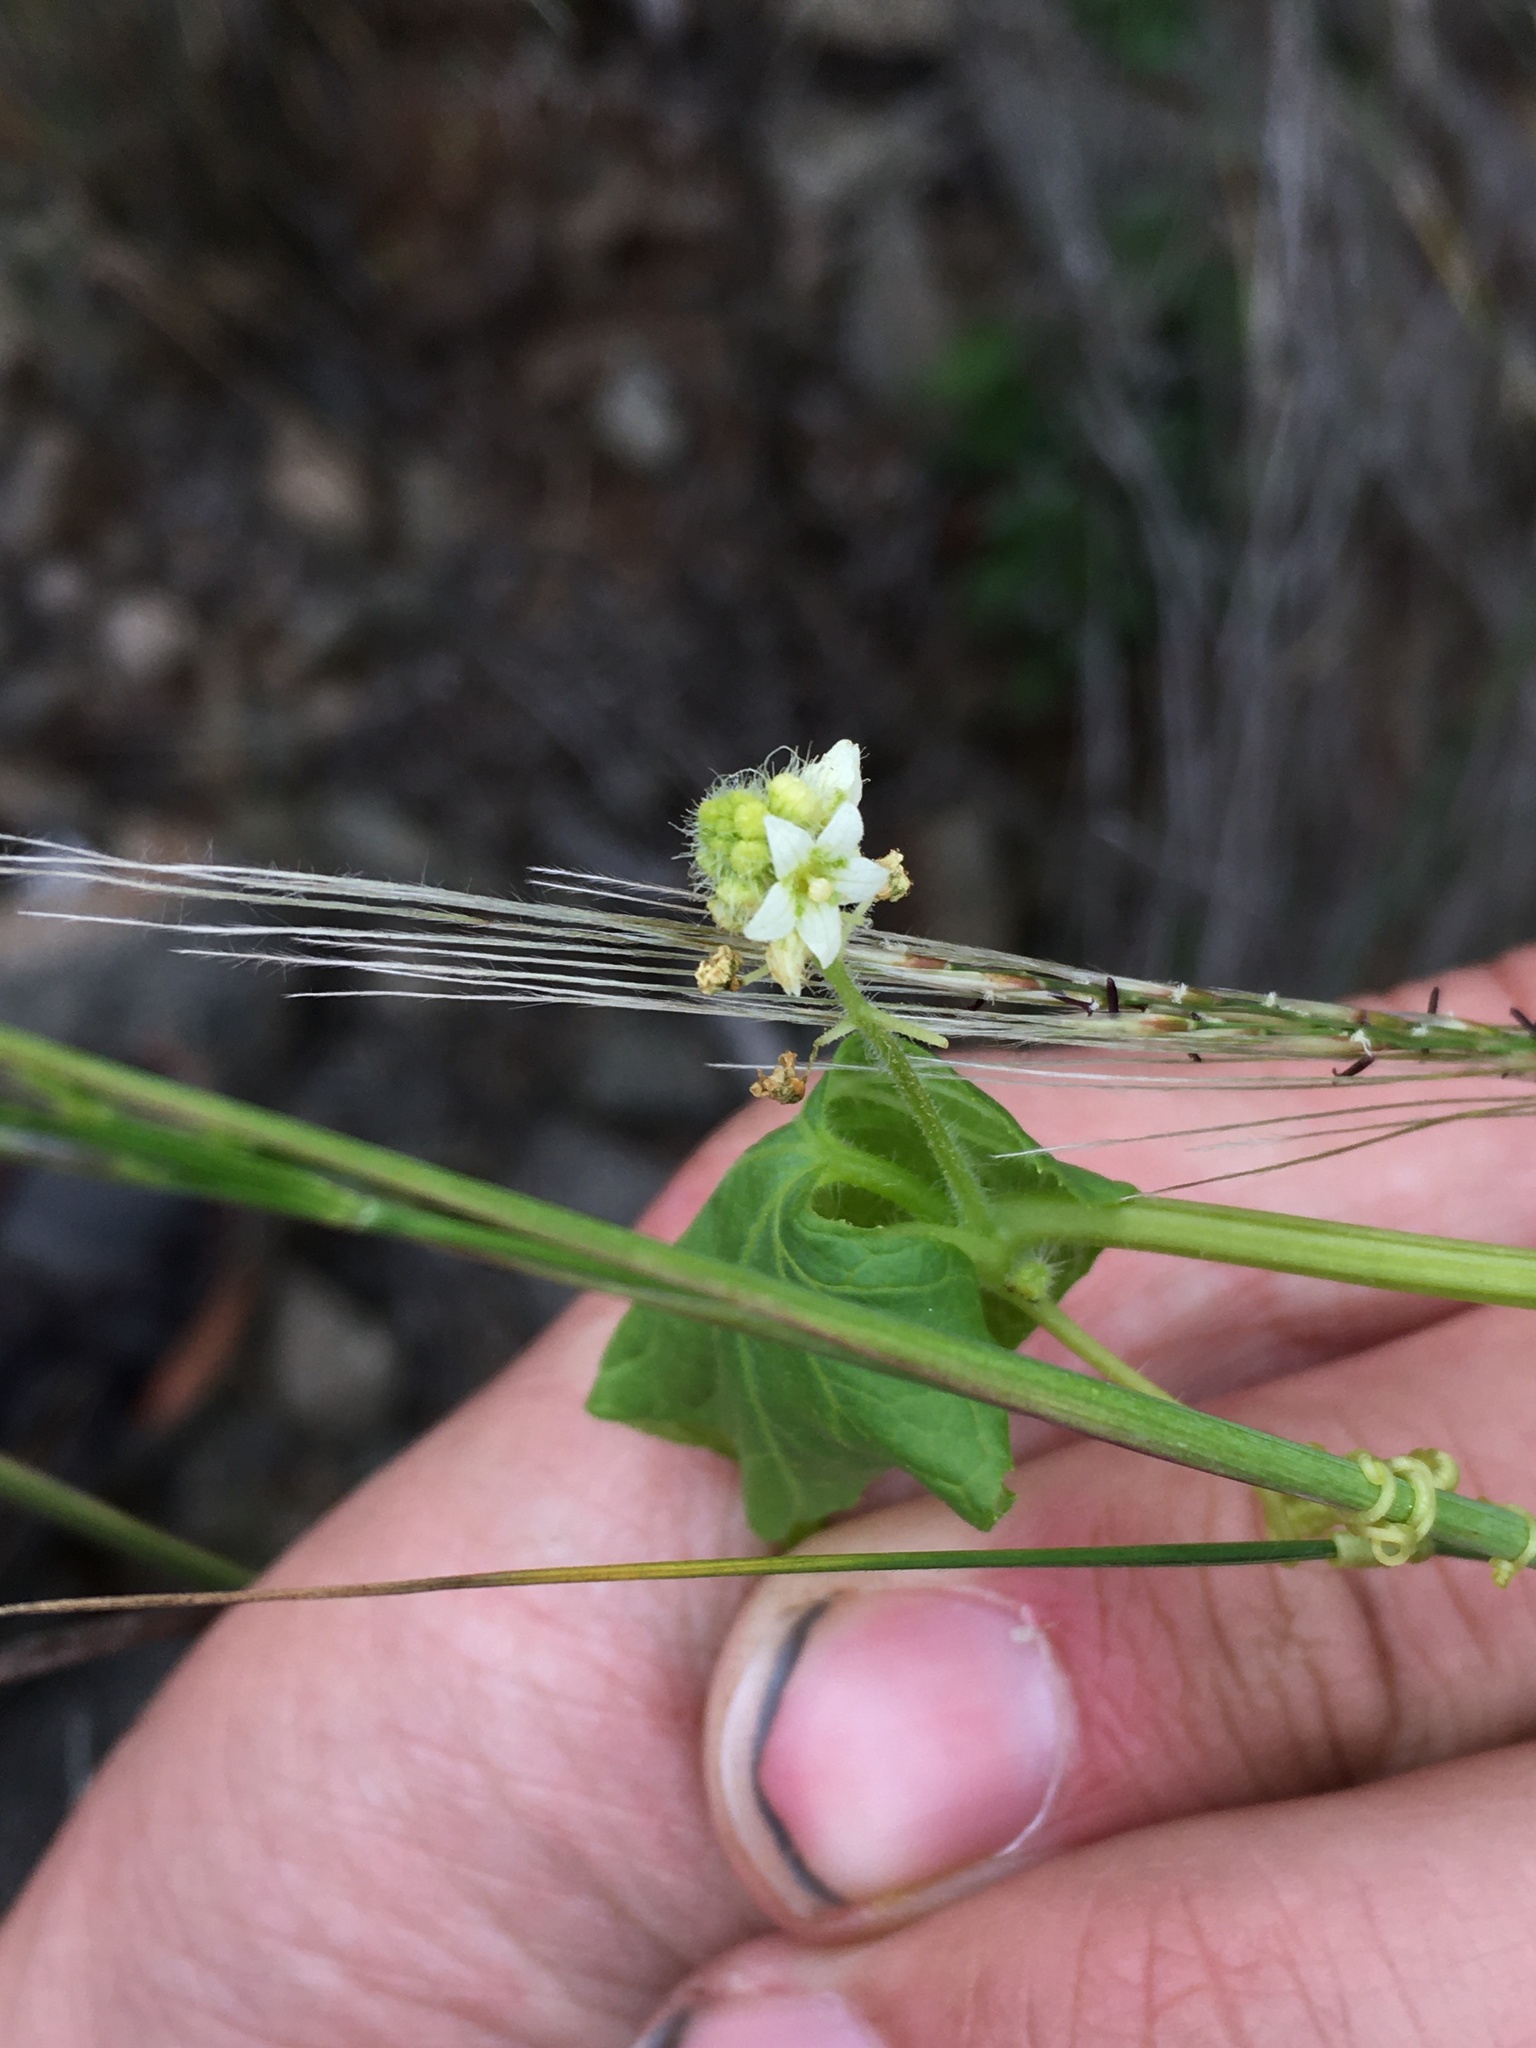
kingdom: Plantae
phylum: Tracheophyta
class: Magnoliopsida
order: Cucurbitales
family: Cucurbitaceae
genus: Sicyos
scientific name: Sicyos baderoa
